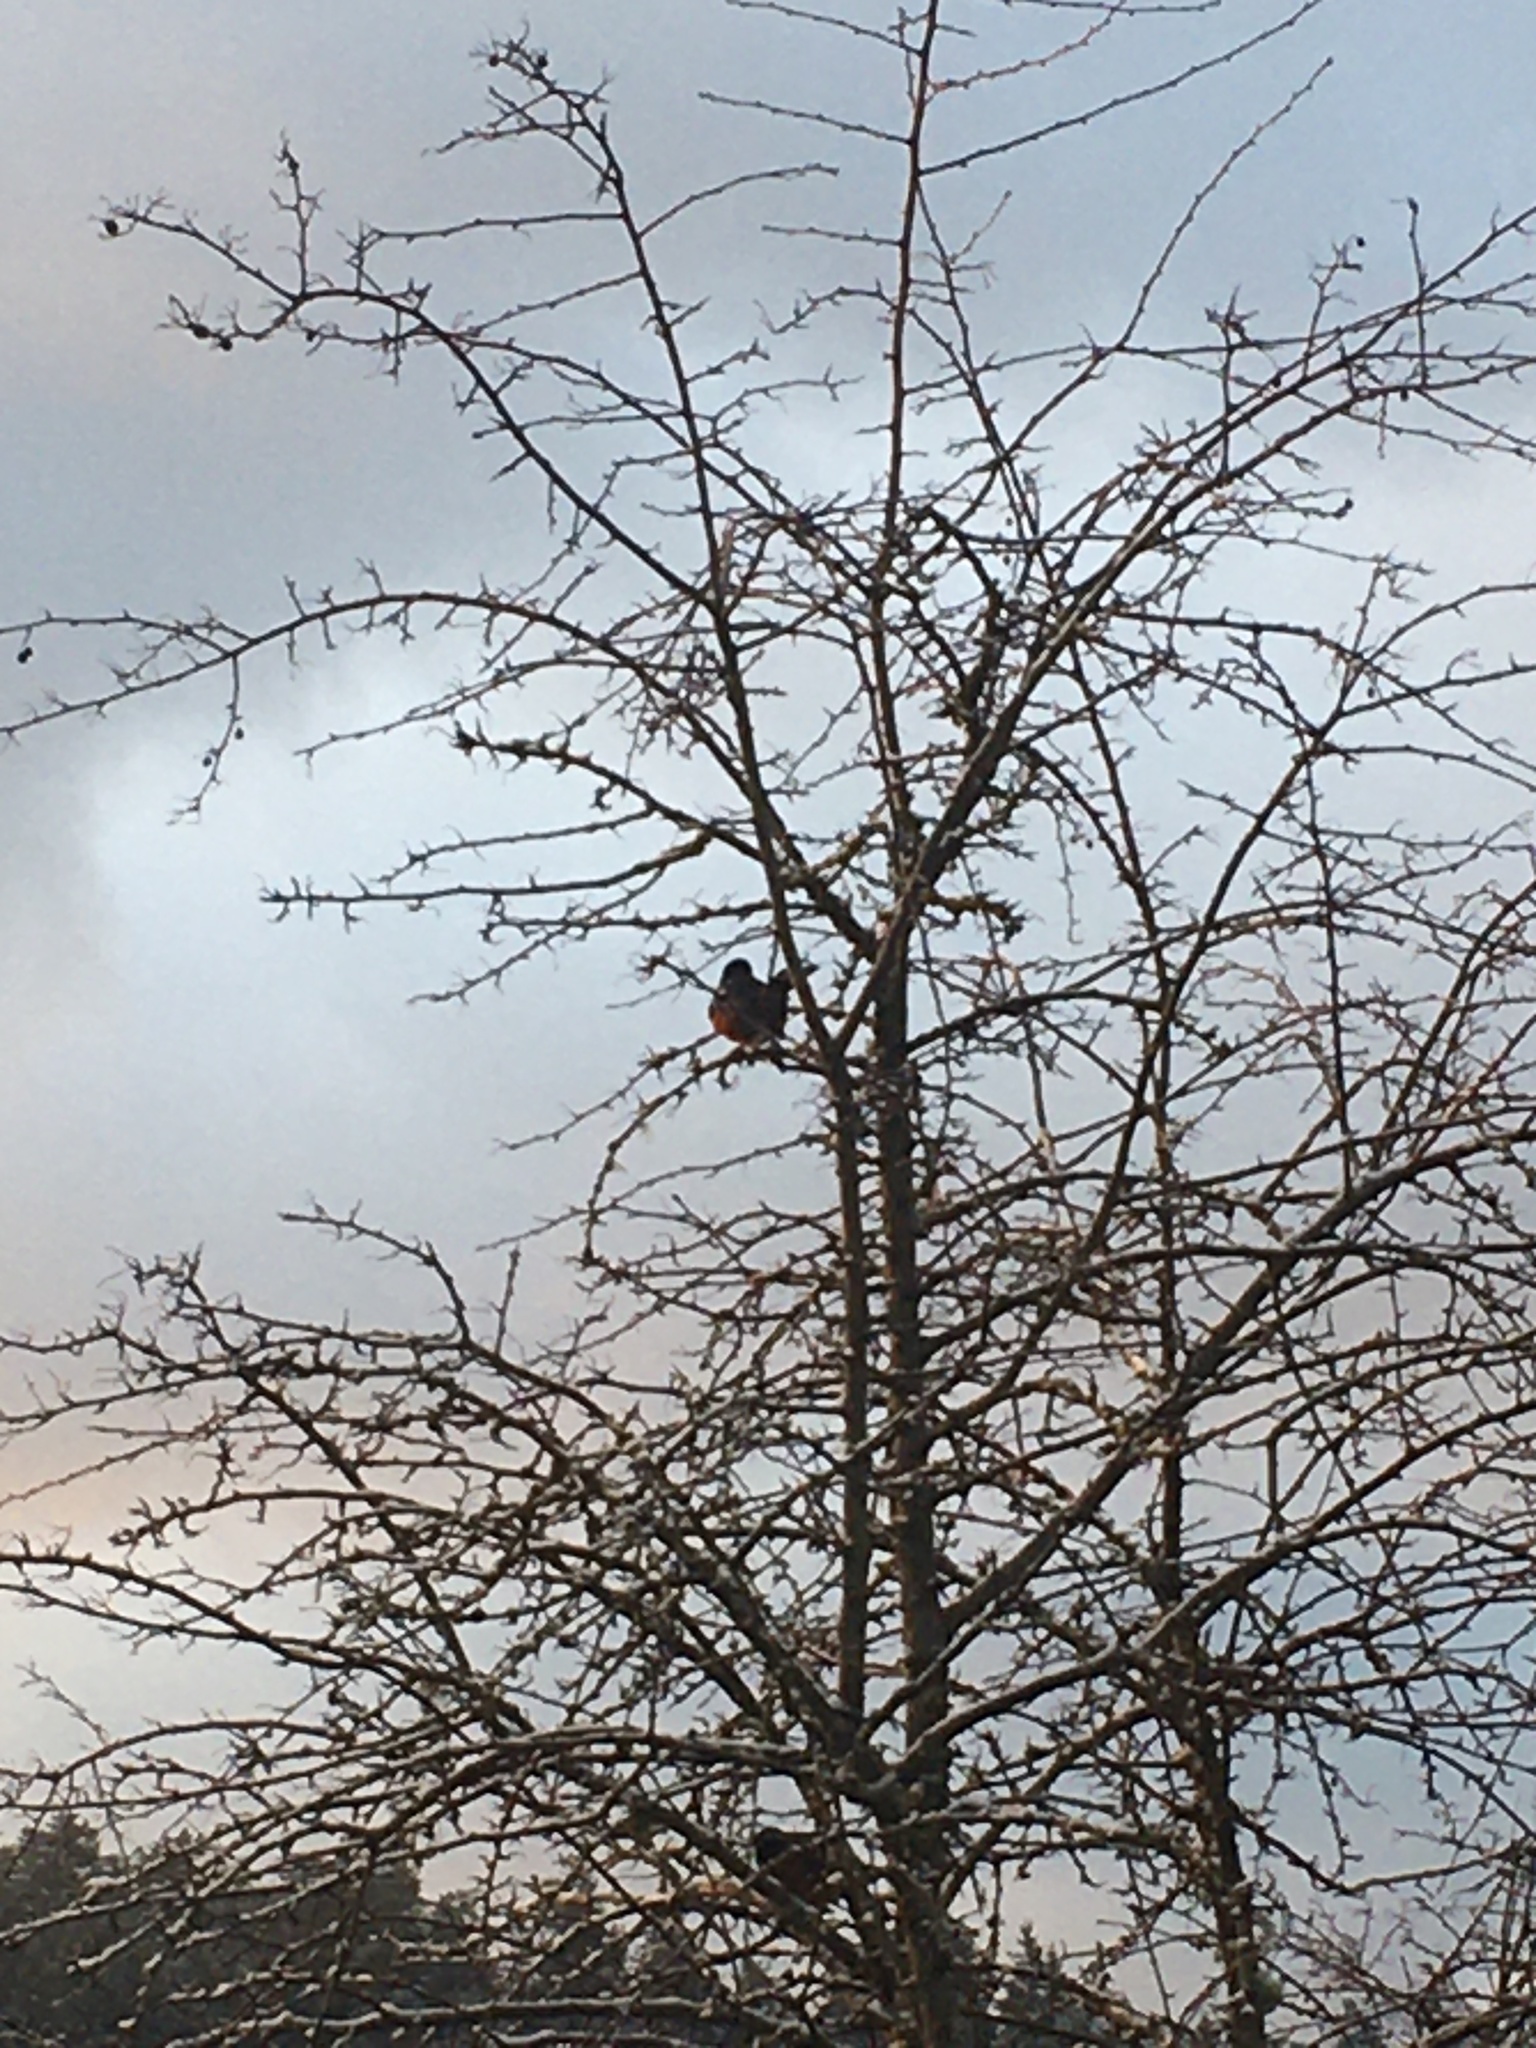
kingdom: Animalia
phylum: Chordata
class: Aves
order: Passeriformes
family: Passerellidae
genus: Pipilo
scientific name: Pipilo maculatus
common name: Spotted towhee
